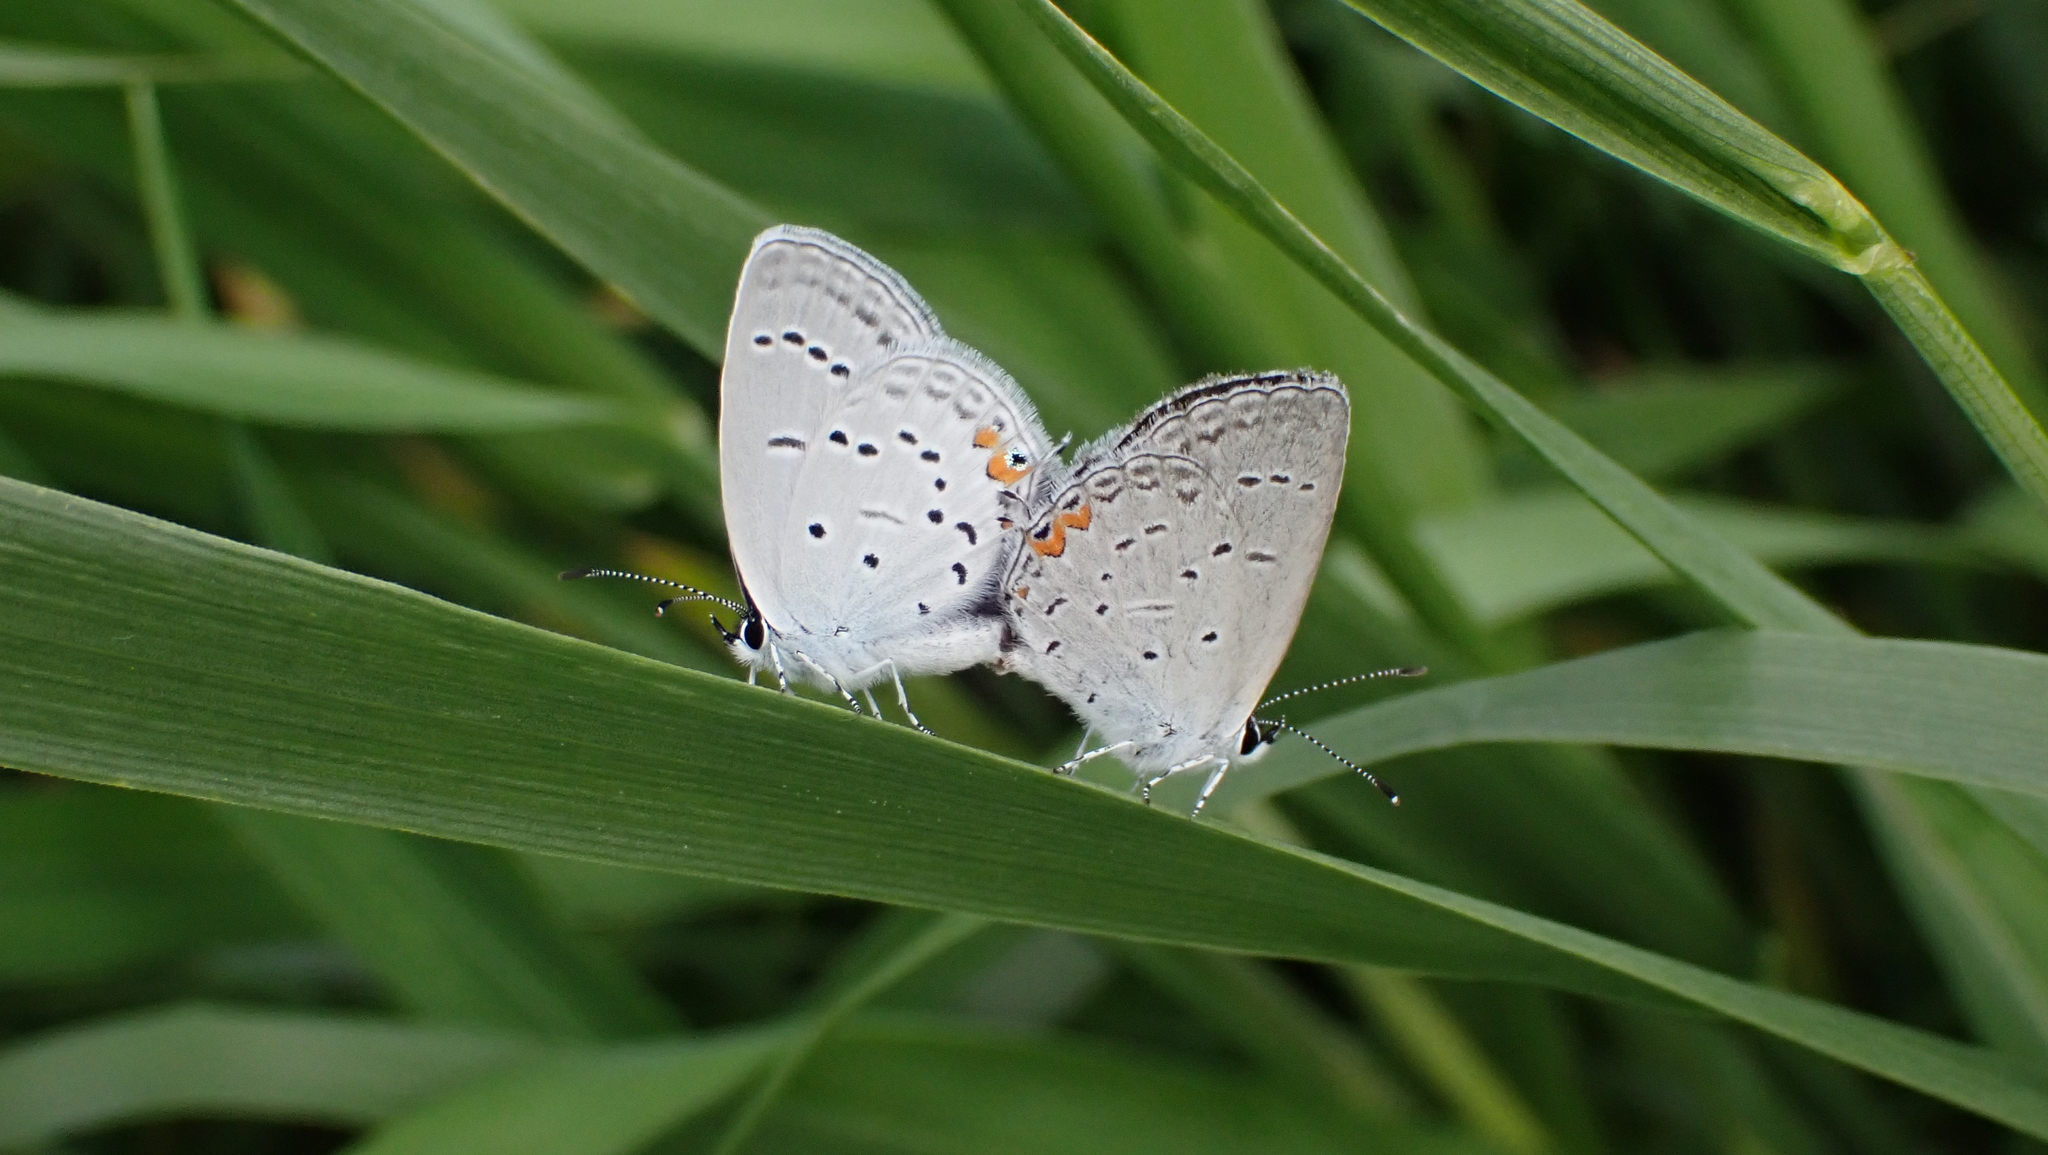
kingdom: Animalia
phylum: Arthropoda
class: Insecta
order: Lepidoptera
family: Lycaenidae
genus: Elkalyce
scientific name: Elkalyce comyntas
